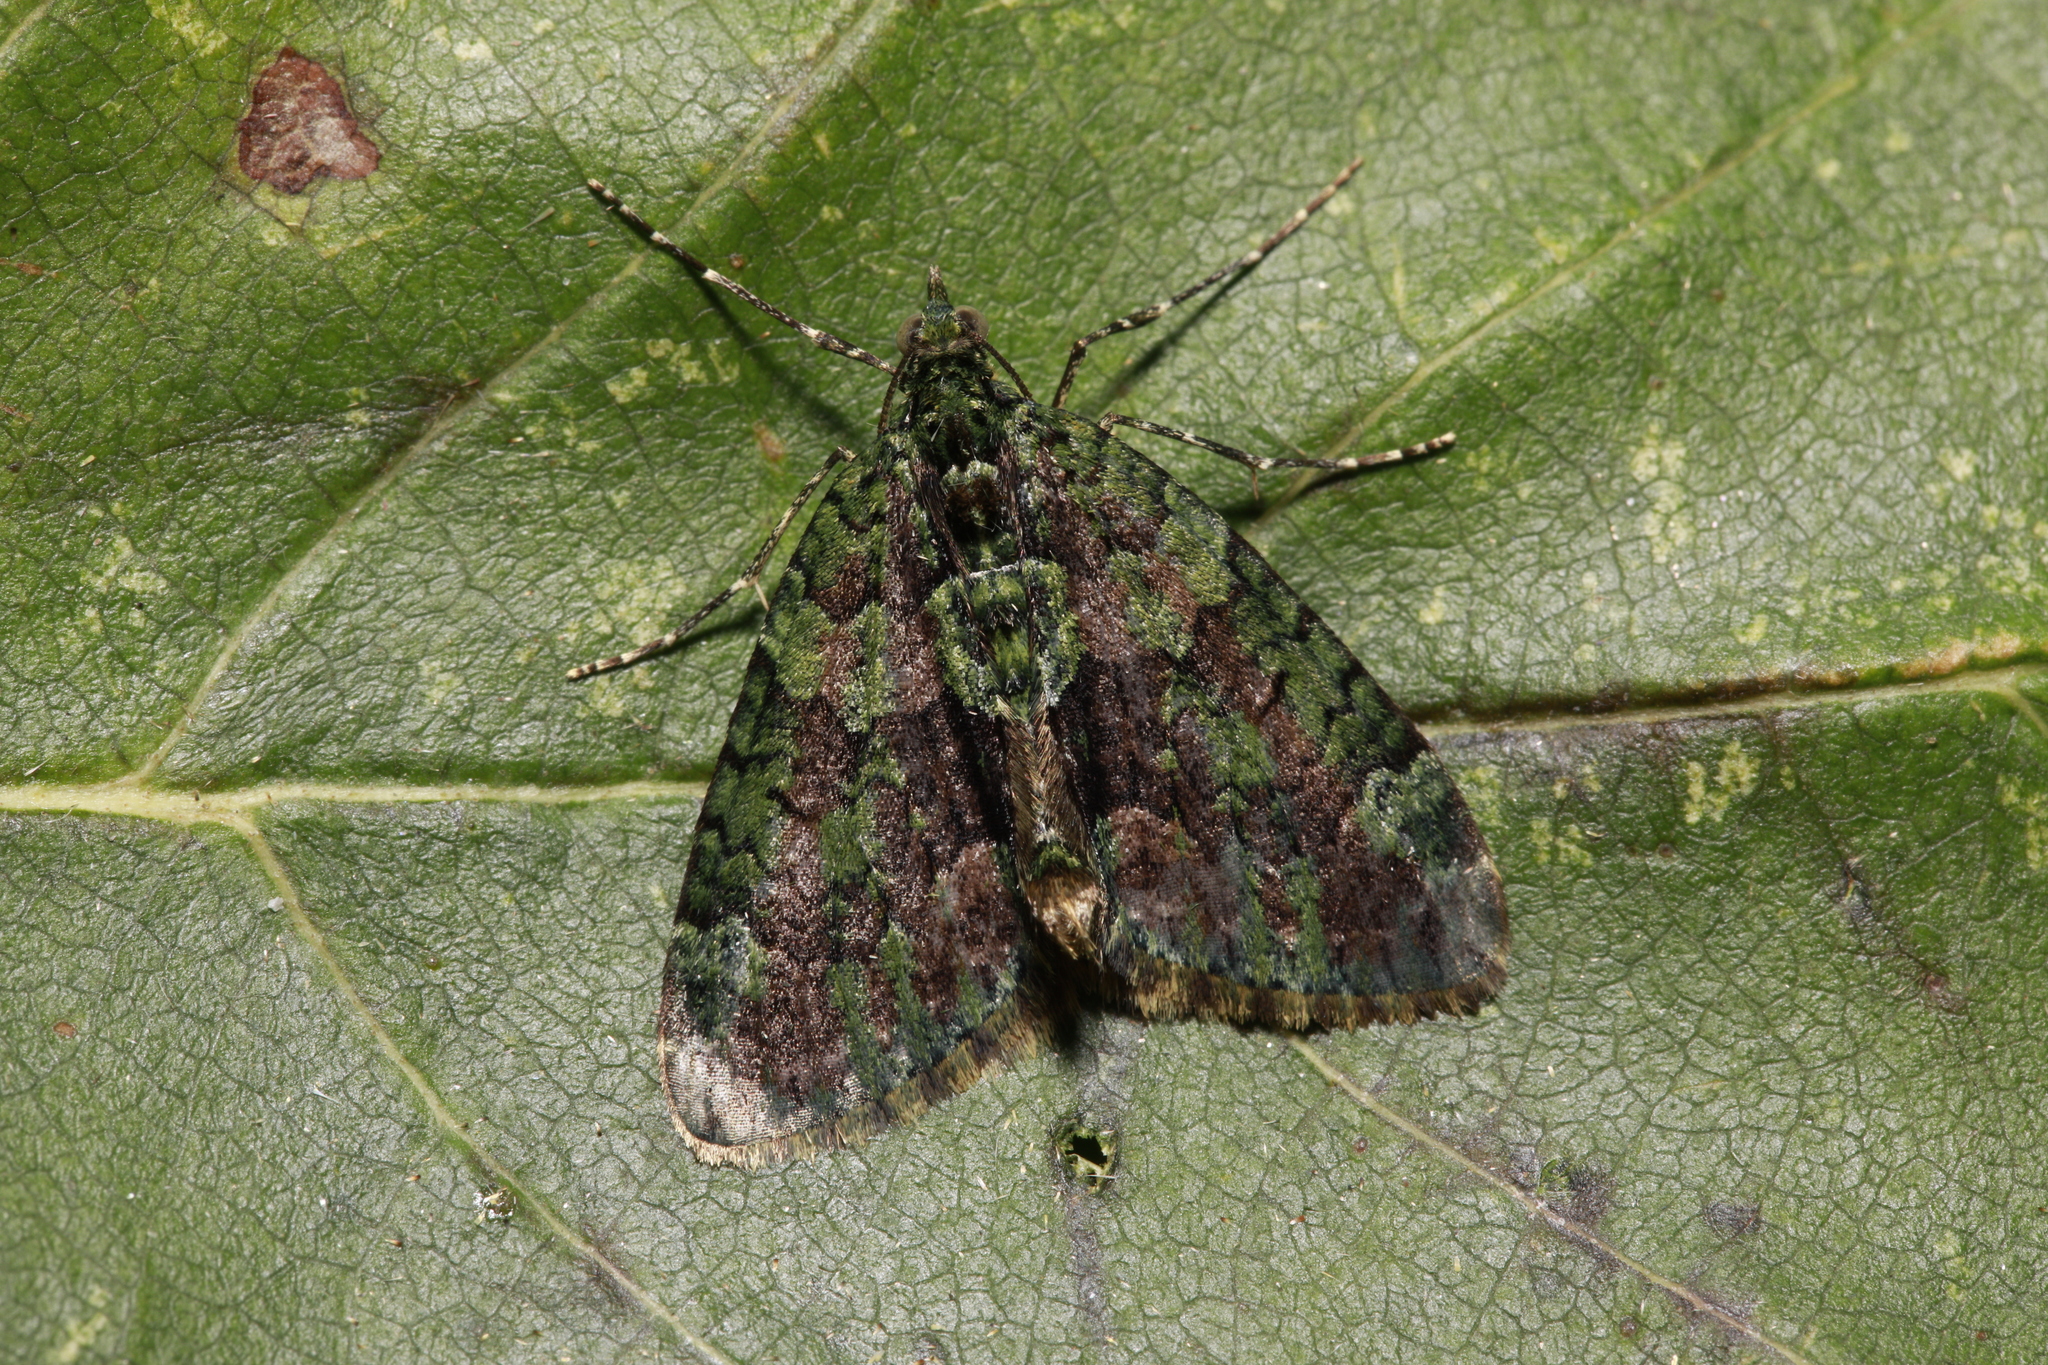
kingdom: Animalia
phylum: Arthropoda
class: Insecta
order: Lepidoptera
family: Geometridae
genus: Chloroclysta
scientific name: Chloroclysta siterata
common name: Red-green carpet
